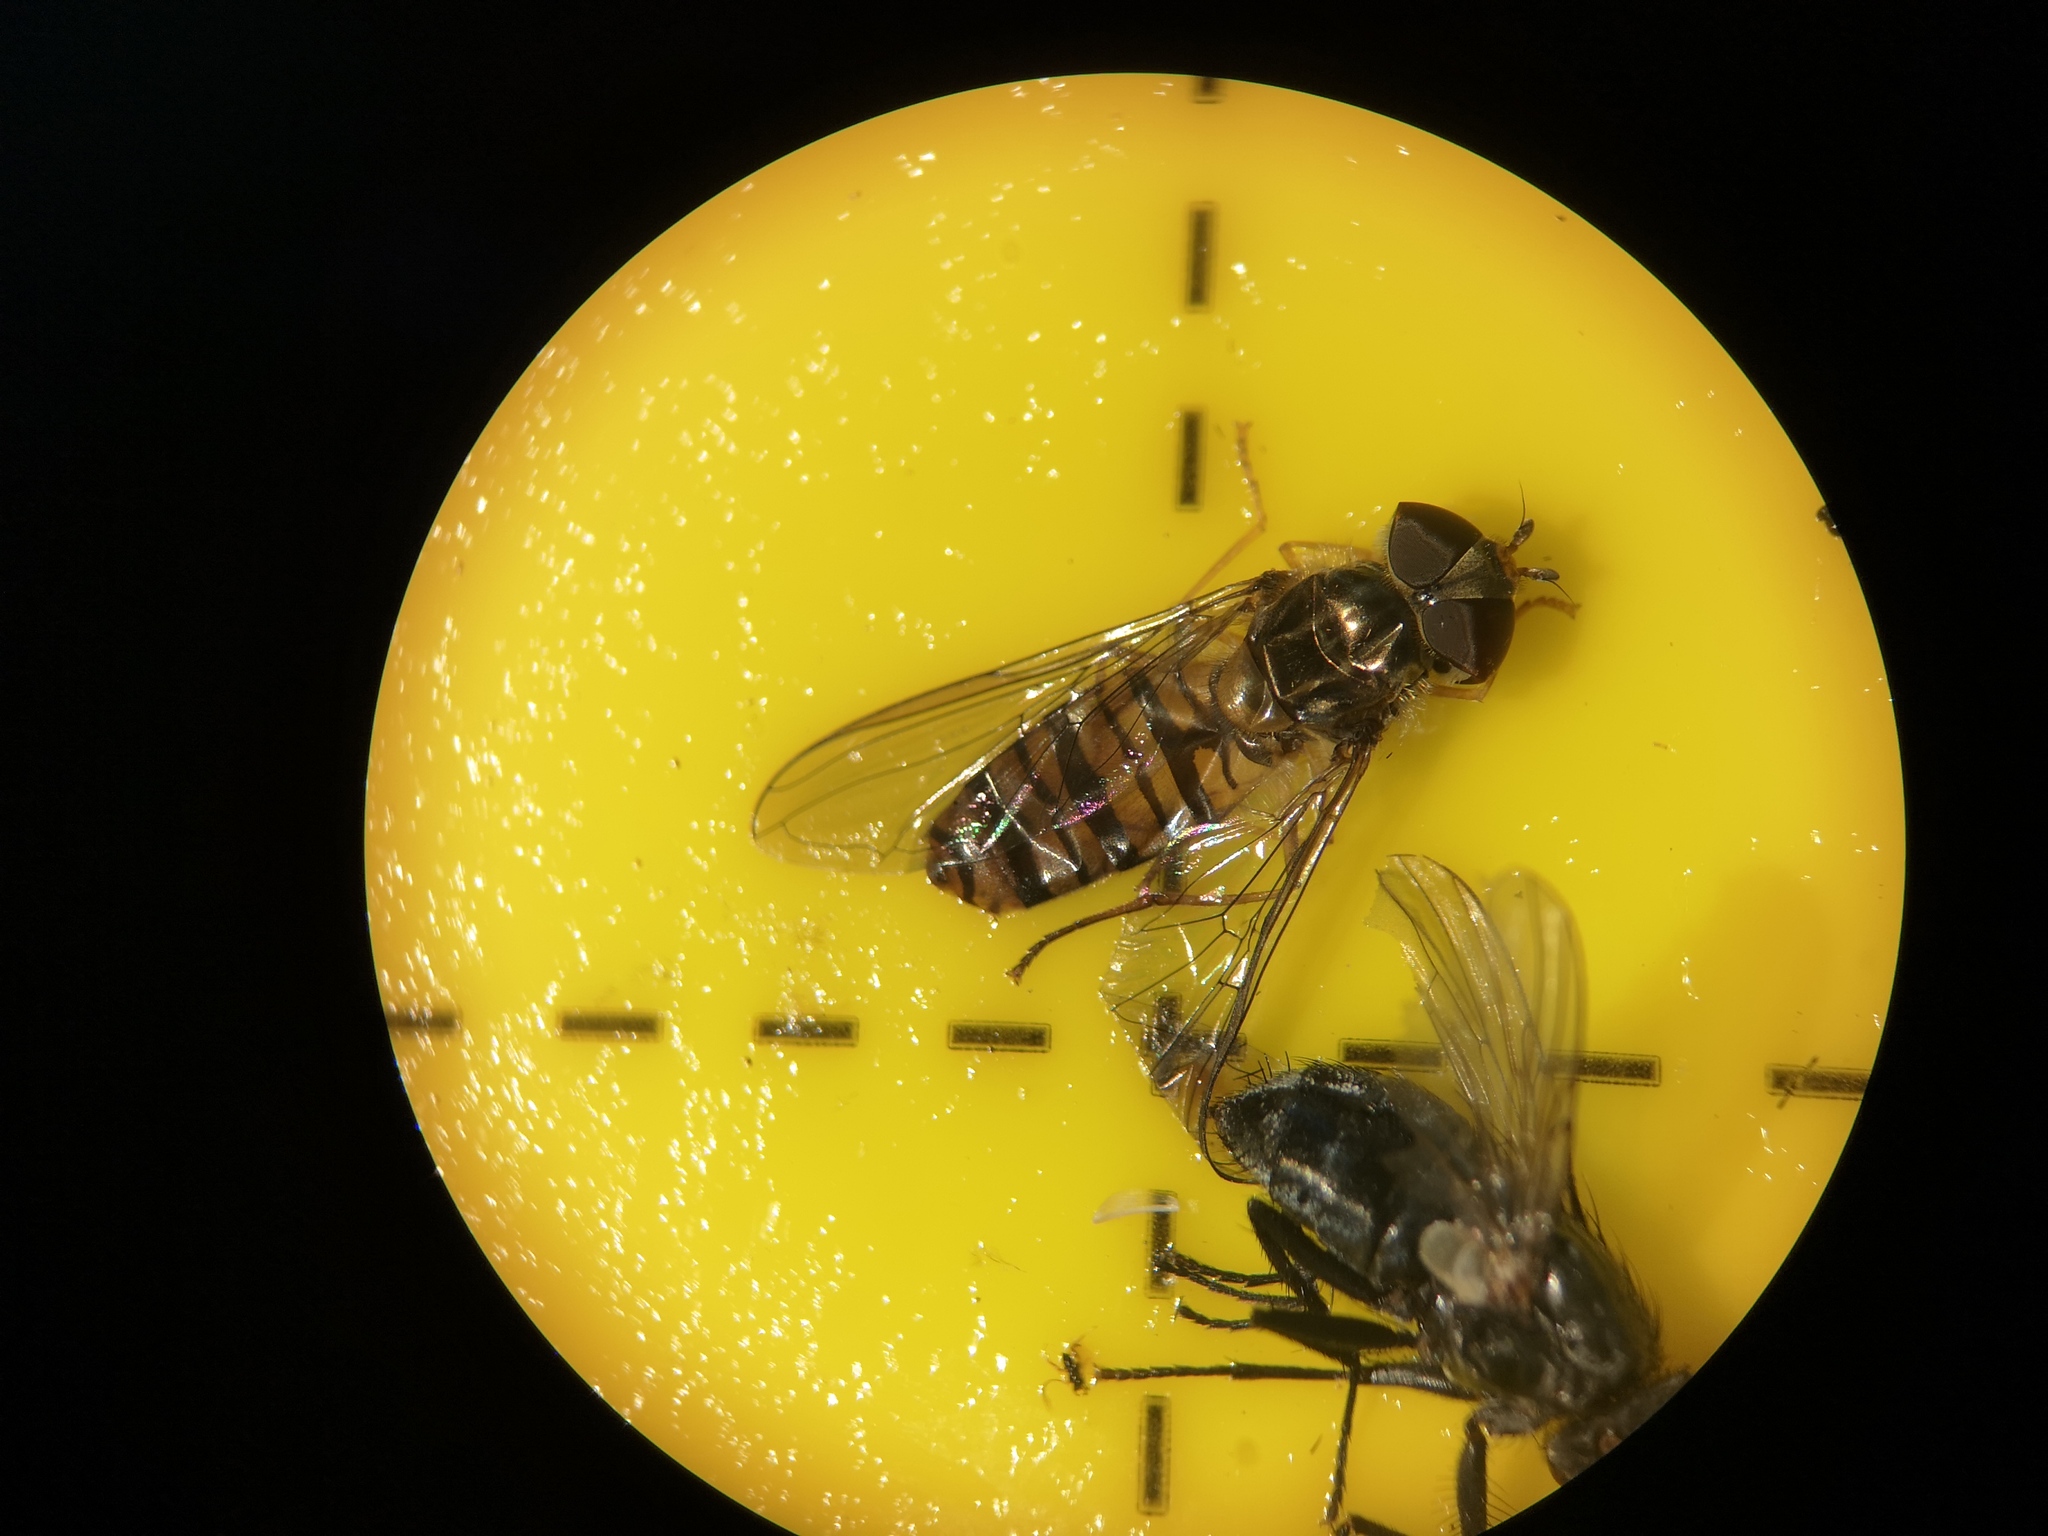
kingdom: Animalia
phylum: Arthropoda
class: Insecta
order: Diptera
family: Syrphidae
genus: Episyrphus
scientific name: Episyrphus balteatus
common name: Marmalade hoverfly
